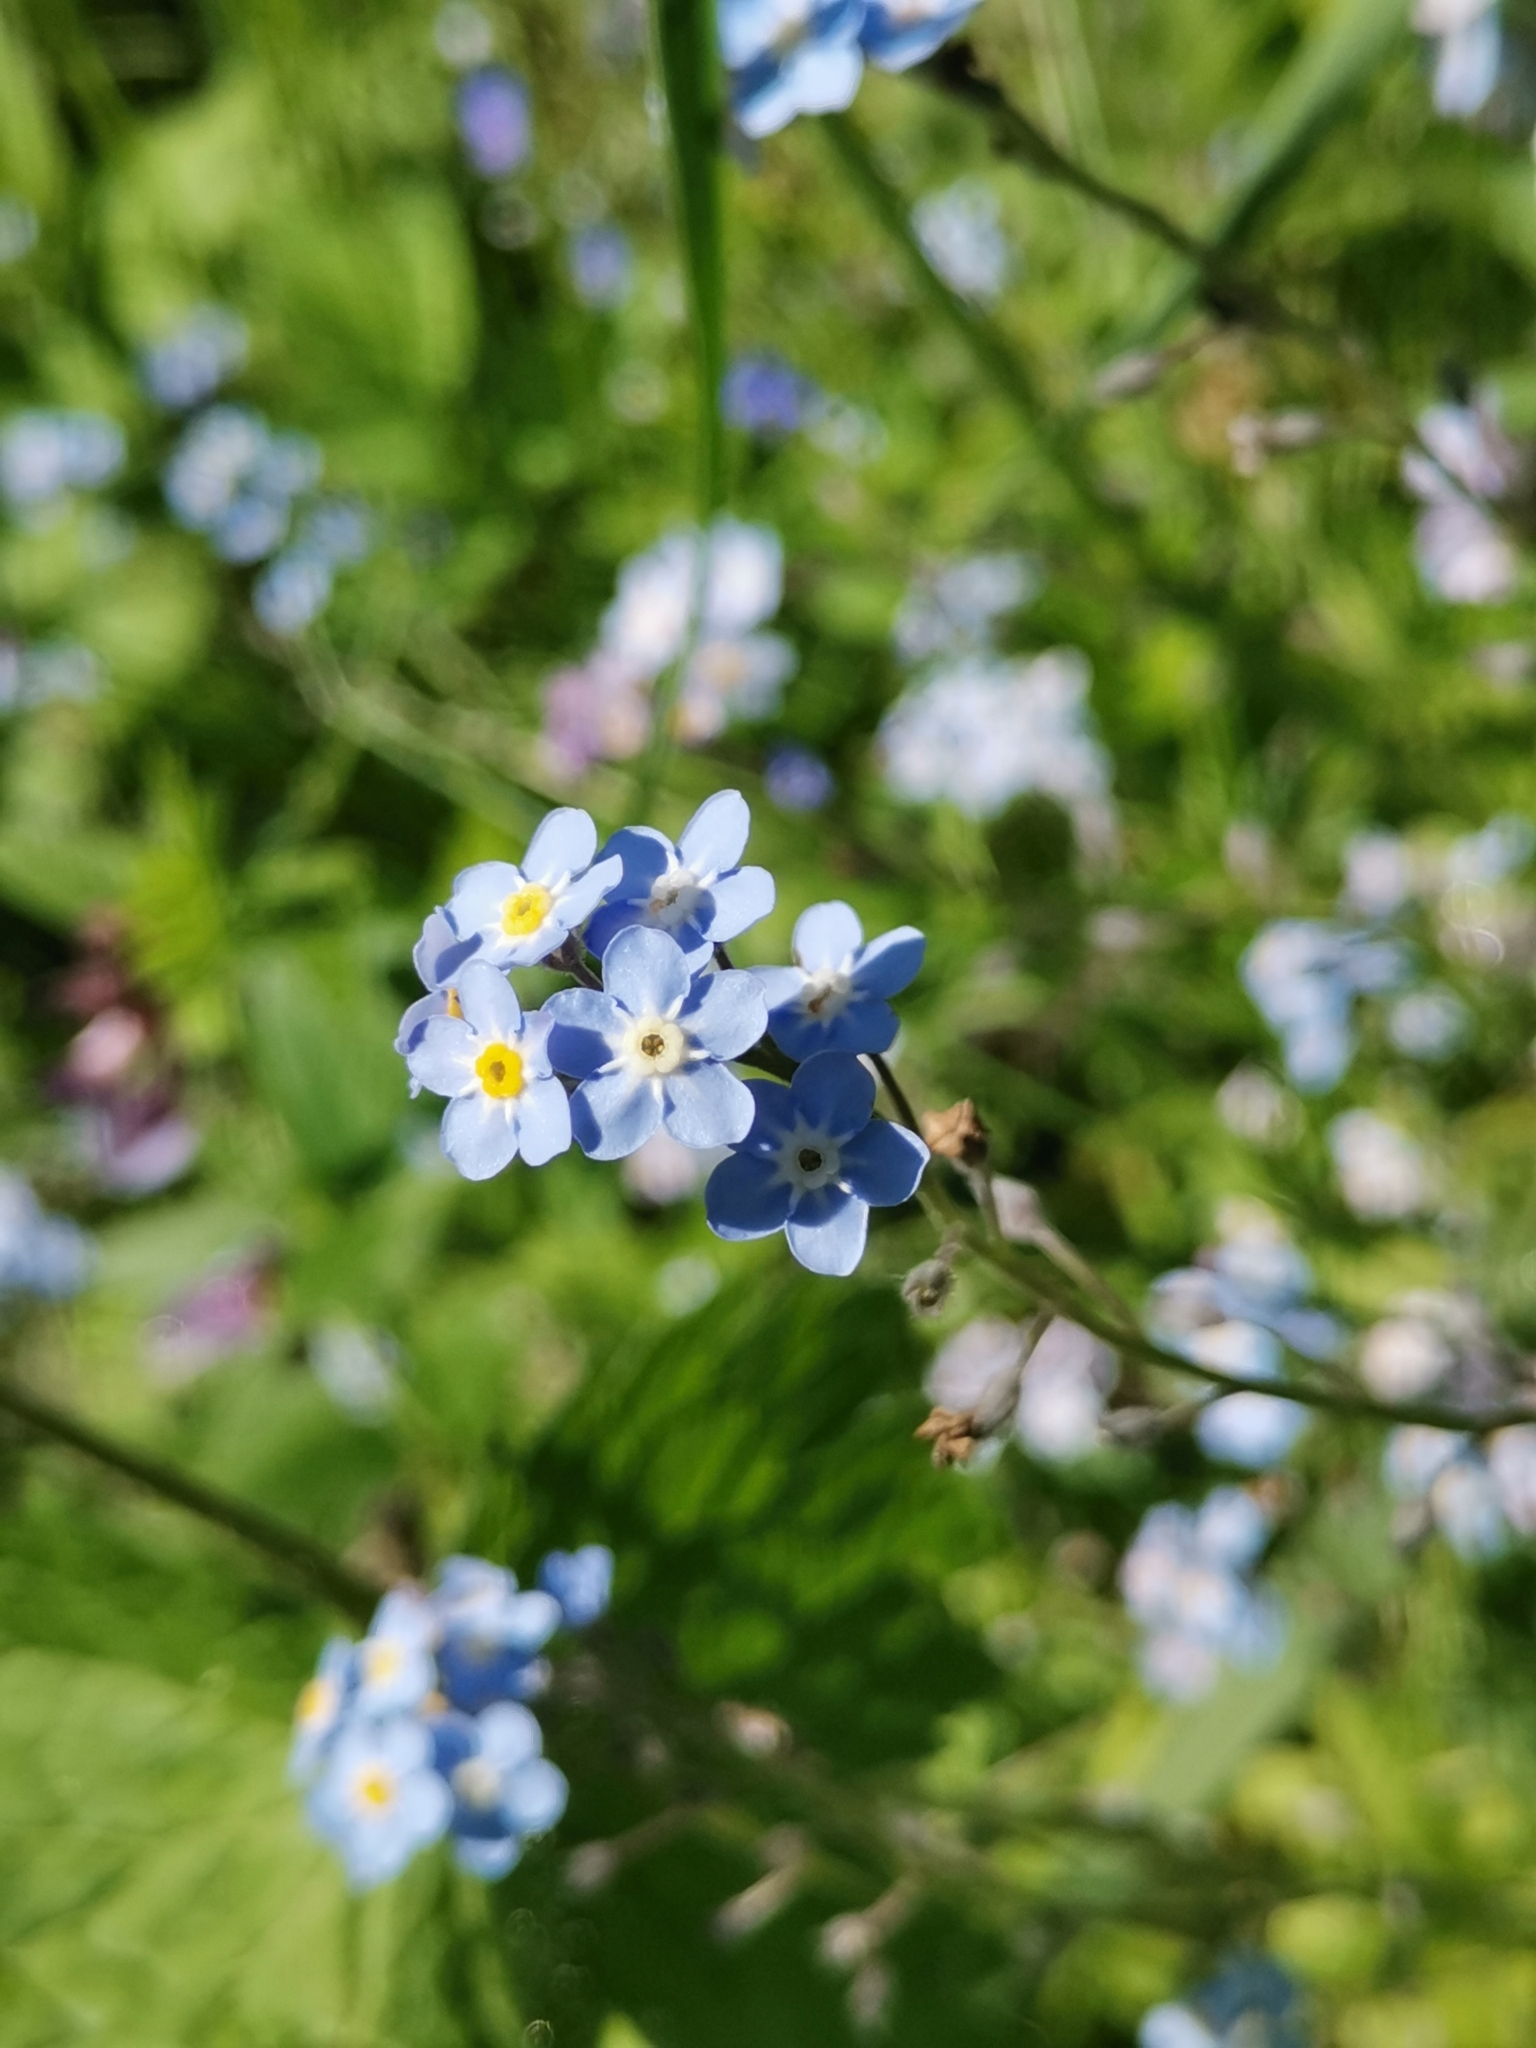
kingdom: Plantae
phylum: Tracheophyta
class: Magnoliopsida
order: Boraginales
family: Boraginaceae
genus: Myosotis
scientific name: Myosotis sylvatica
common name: Wood forget-me-not
